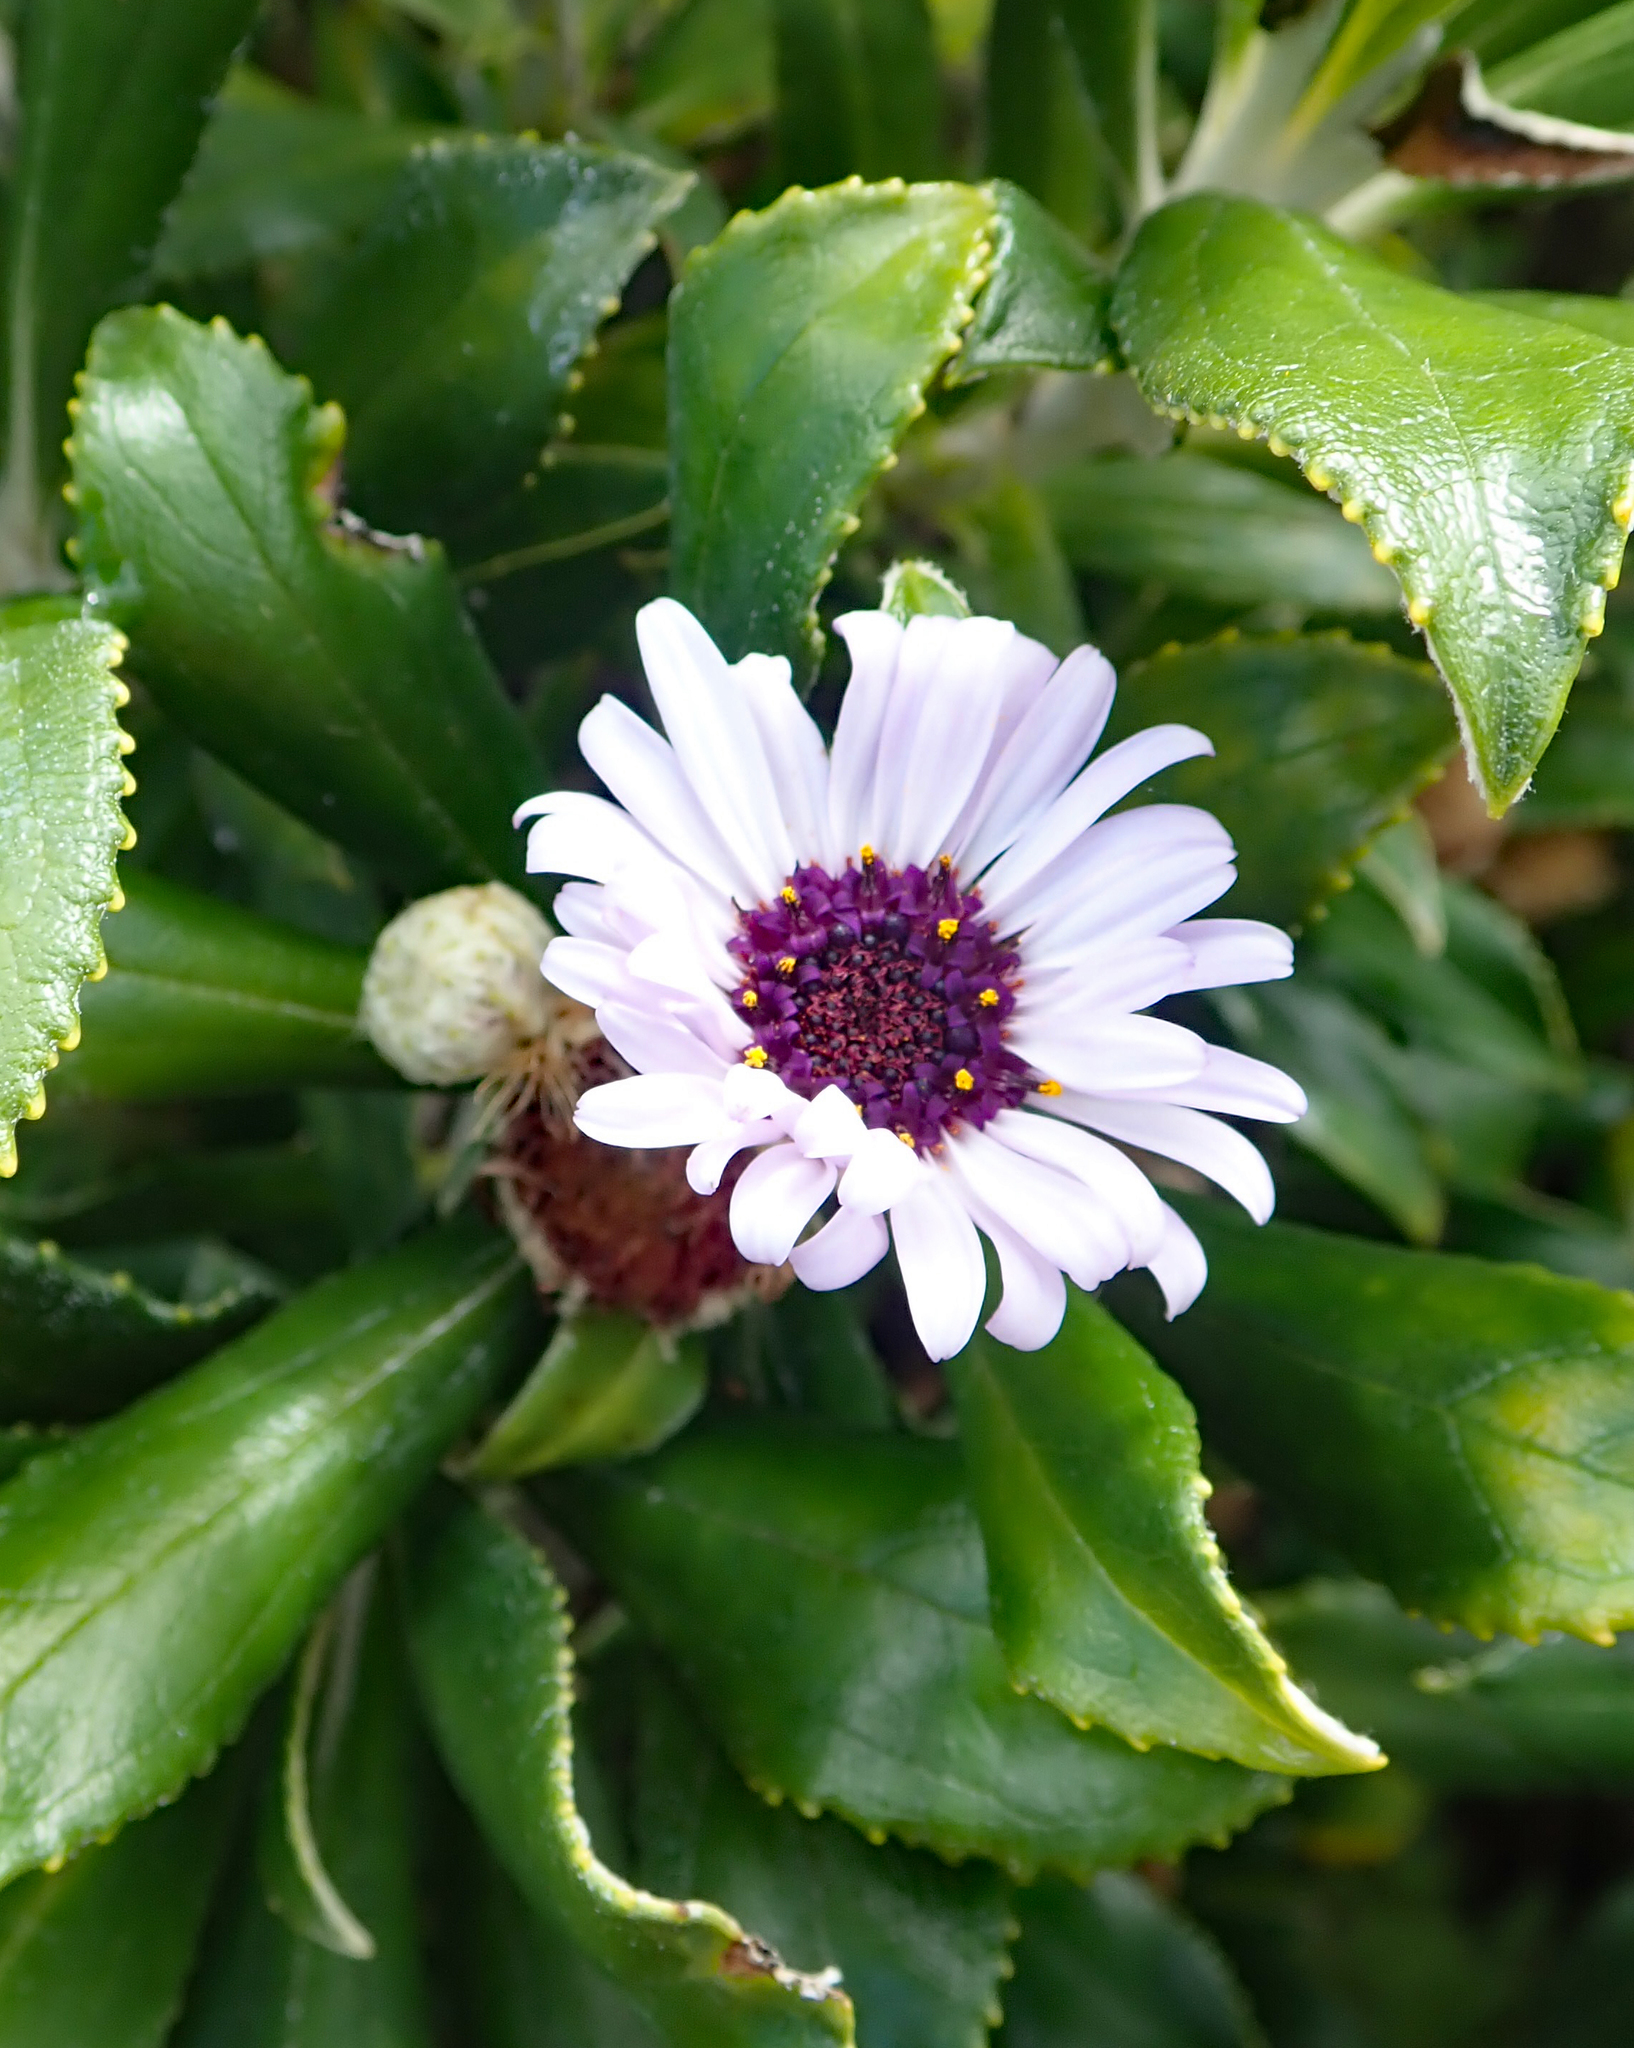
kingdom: Plantae
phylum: Tracheophyta
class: Magnoliopsida
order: Asterales
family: Asteraceae
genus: Macrolearia
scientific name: Macrolearia chathamica
